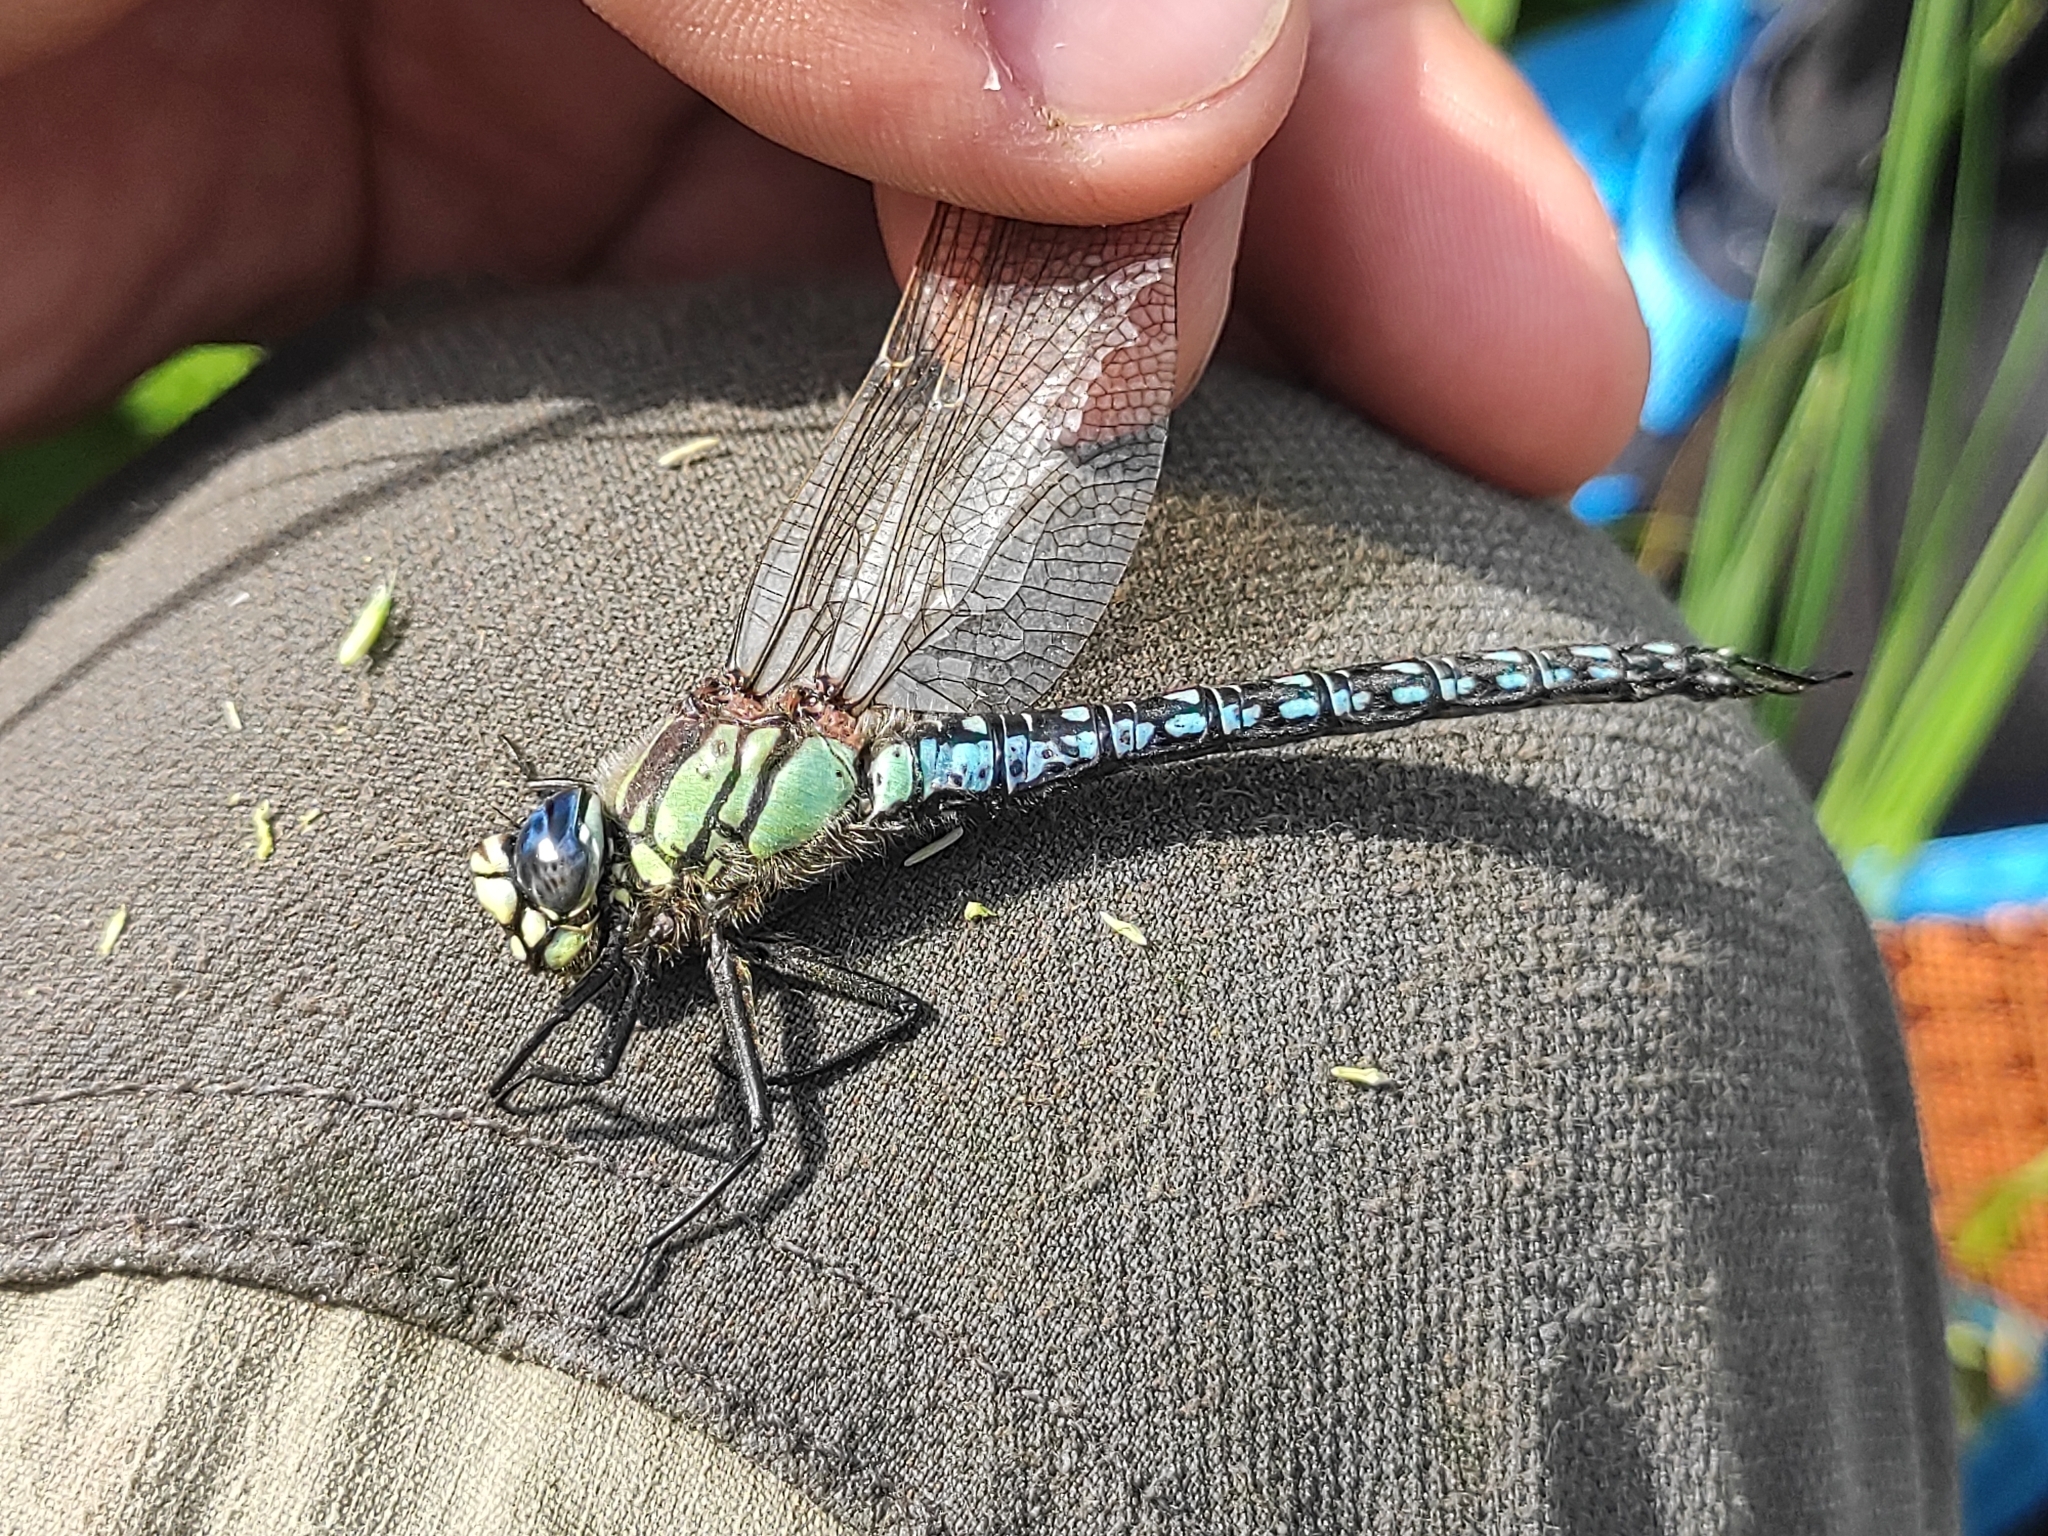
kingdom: Animalia
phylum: Arthropoda
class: Insecta
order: Odonata
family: Aeshnidae
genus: Brachytron
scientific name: Brachytron pratense
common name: Hairy hawker
